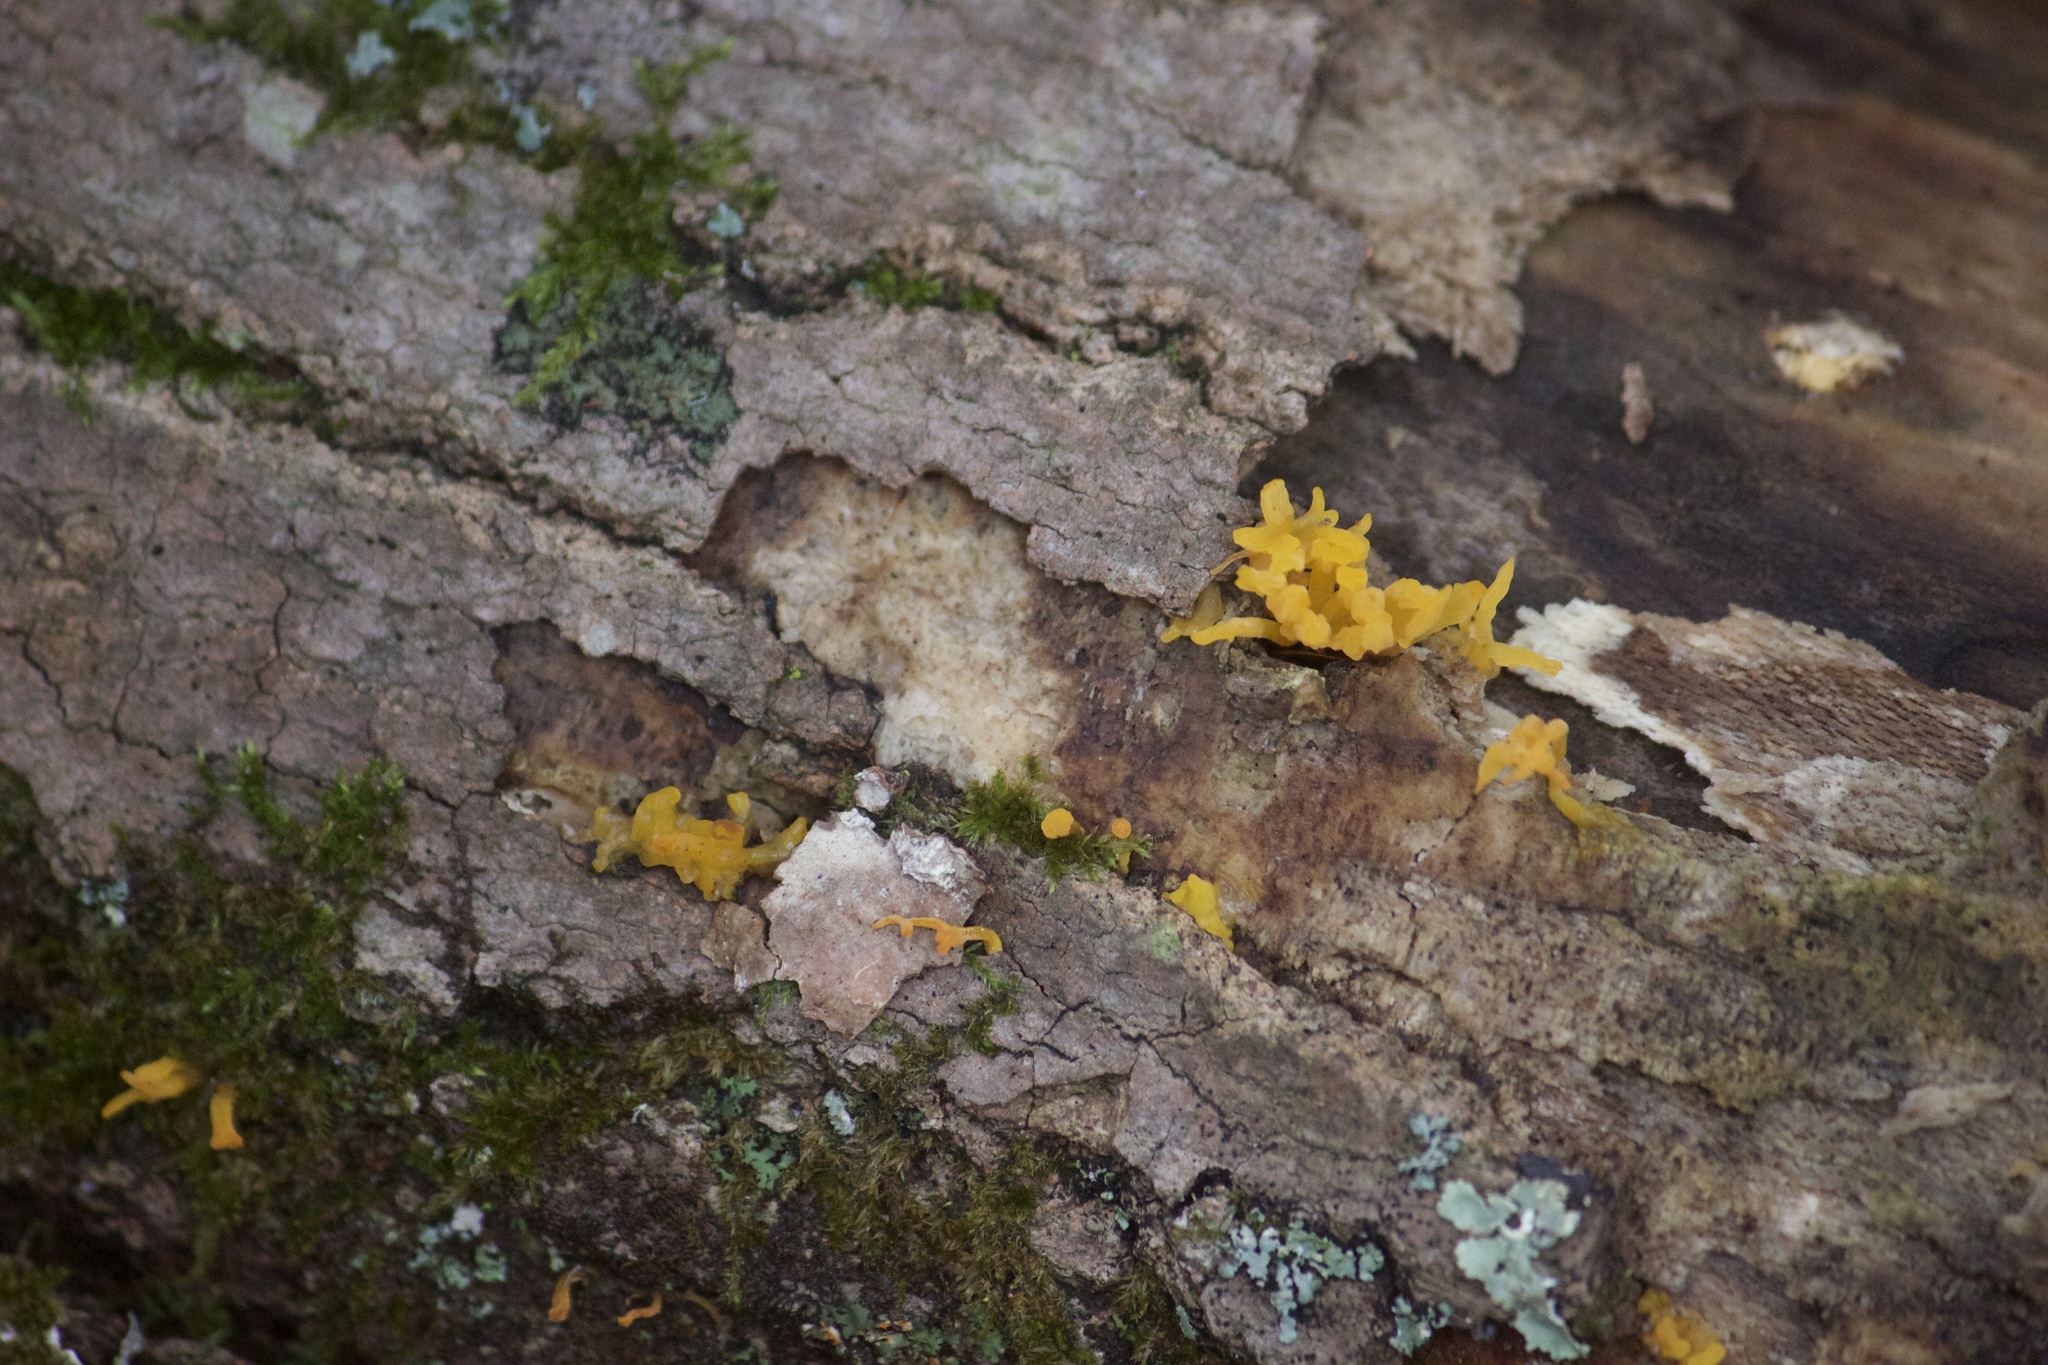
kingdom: Fungi
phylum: Basidiomycota
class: Dacrymycetes
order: Dacrymycetales
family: Dacrymycetaceae
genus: Calocera
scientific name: Calocera cornea
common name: Small stagshorn
